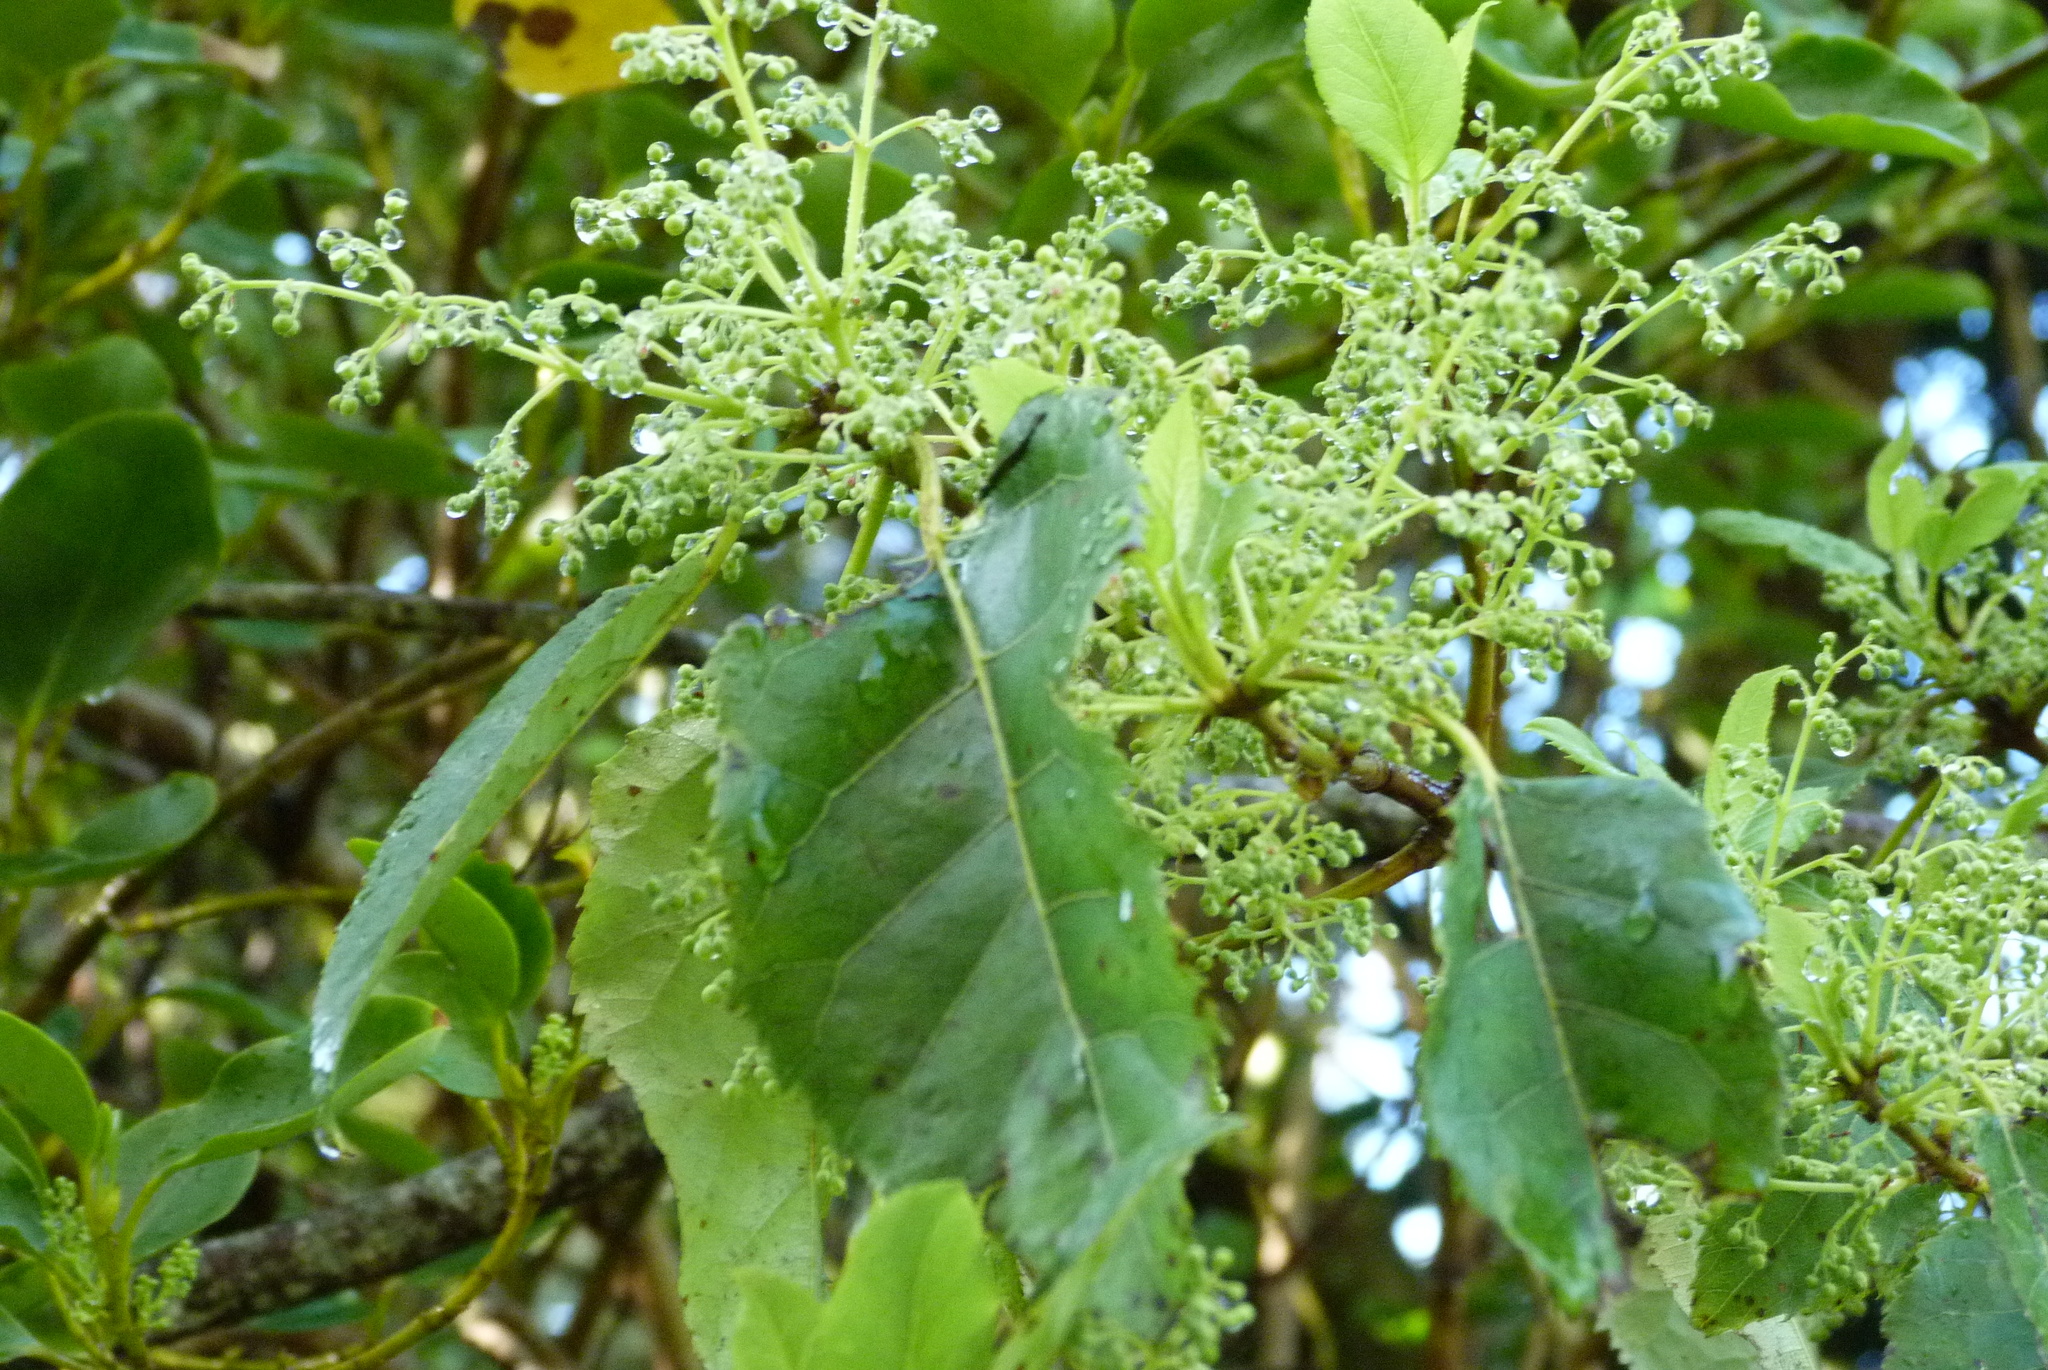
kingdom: Plantae
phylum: Tracheophyta
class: Magnoliopsida
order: Oxalidales
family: Elaeocarpaceae
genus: Aristotelia
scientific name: Aristotelia serrata
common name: New zealand wineberry
